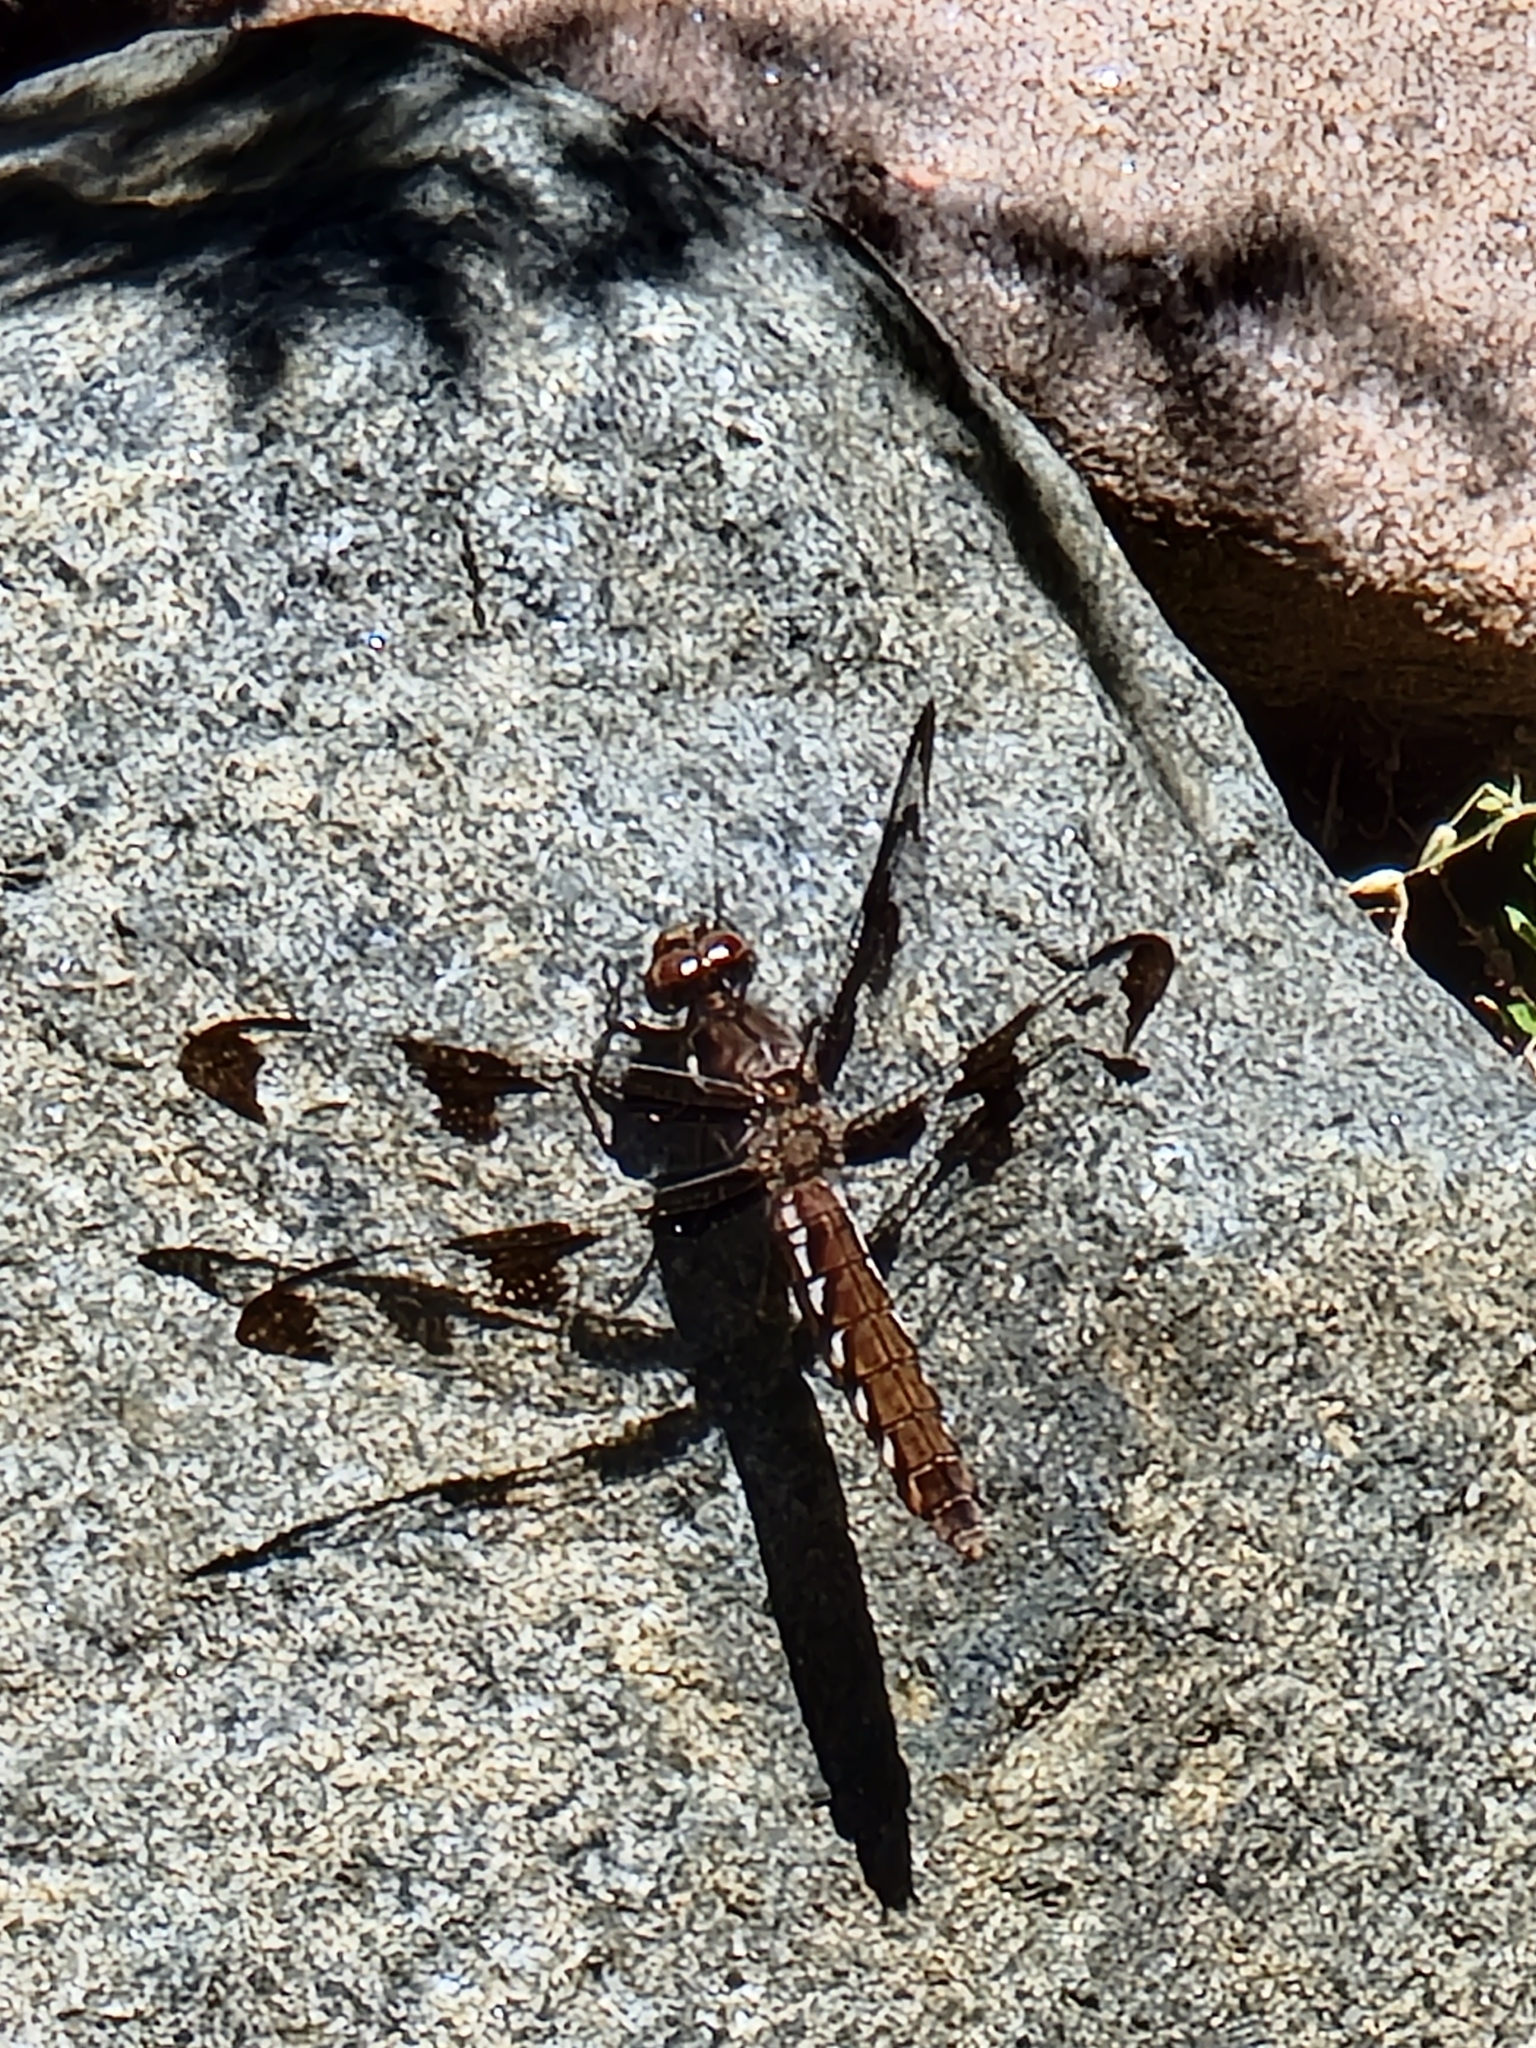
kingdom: Animalia
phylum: Arthropoda
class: Insecta
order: Odonata
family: Libellulidae
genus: Plathemis
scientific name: Plathemis lydia
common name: Common whitetail
